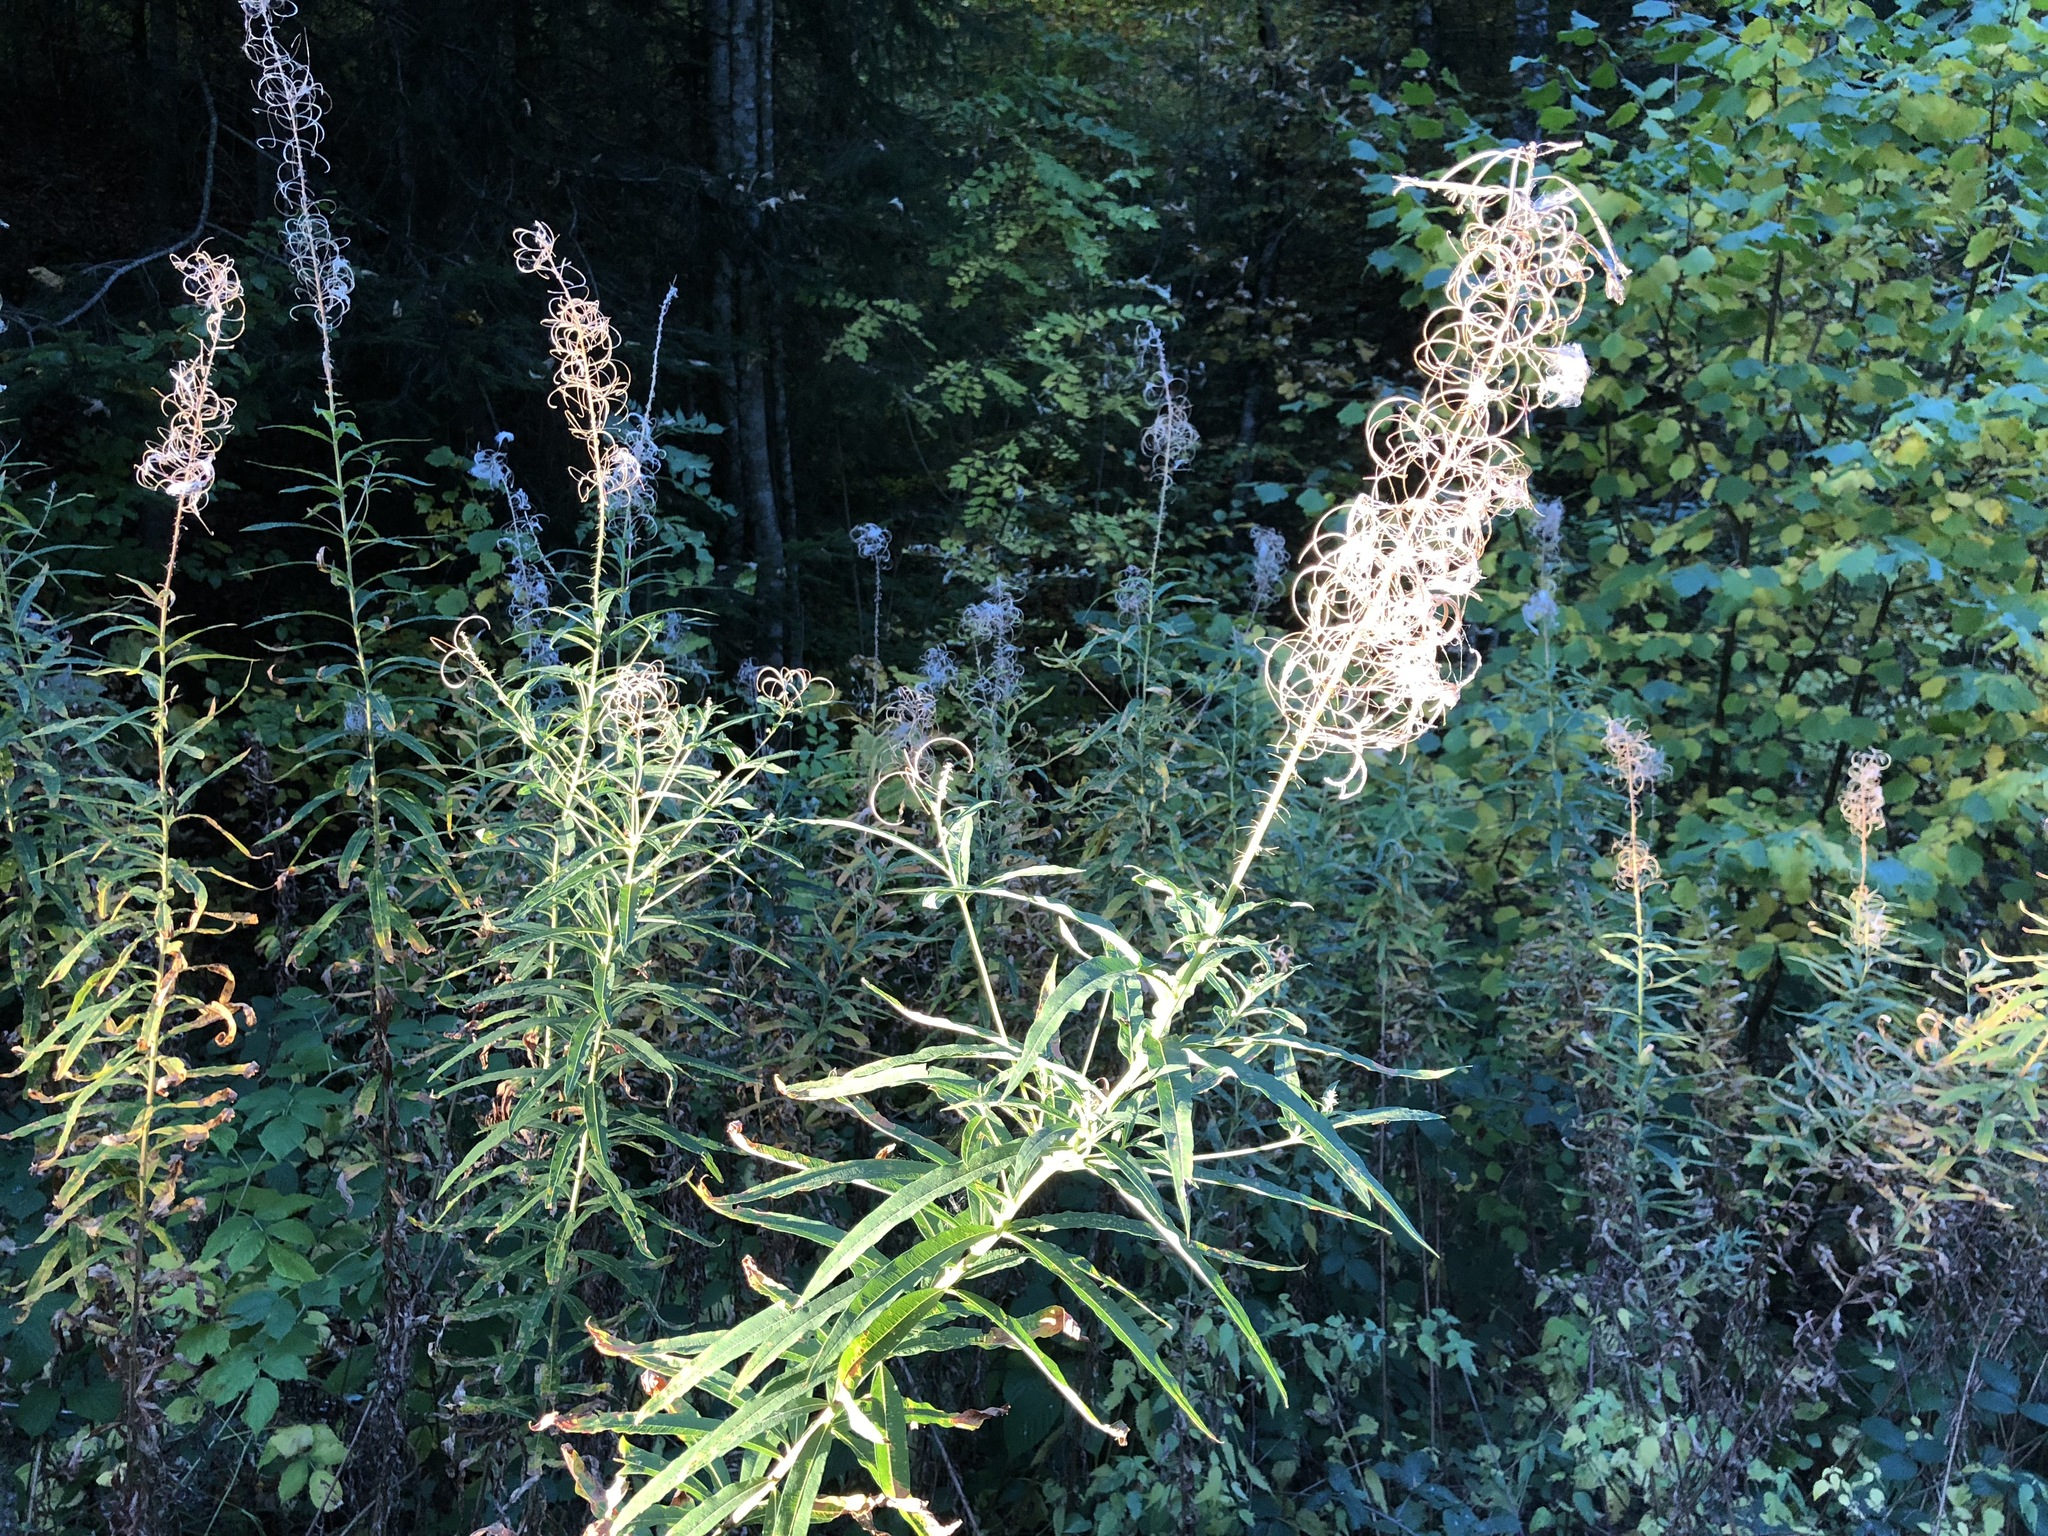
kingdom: Plantae
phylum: Tracheophyta
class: Magnoliopsida
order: Myrtales
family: Onagraceae
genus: Chamaenerion
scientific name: Chamaenerion angustifolium
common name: Fireweed
